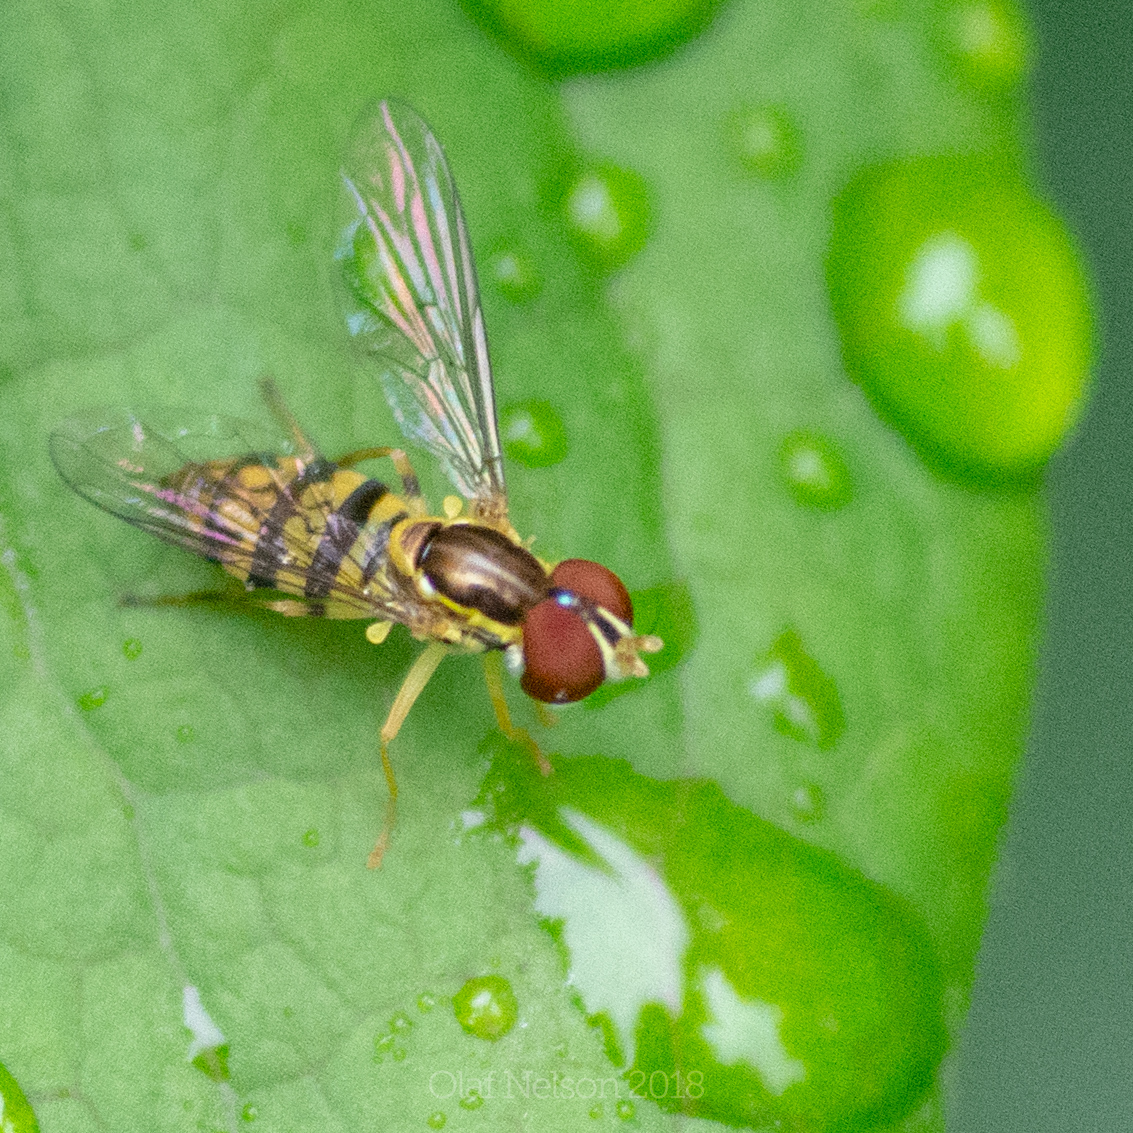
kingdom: Animalia
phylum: Arthropoda
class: Insecta
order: Diptera
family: Syrphidae
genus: Toxomerus
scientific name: Toxomerus geminatus
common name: Eastern calligrapher
